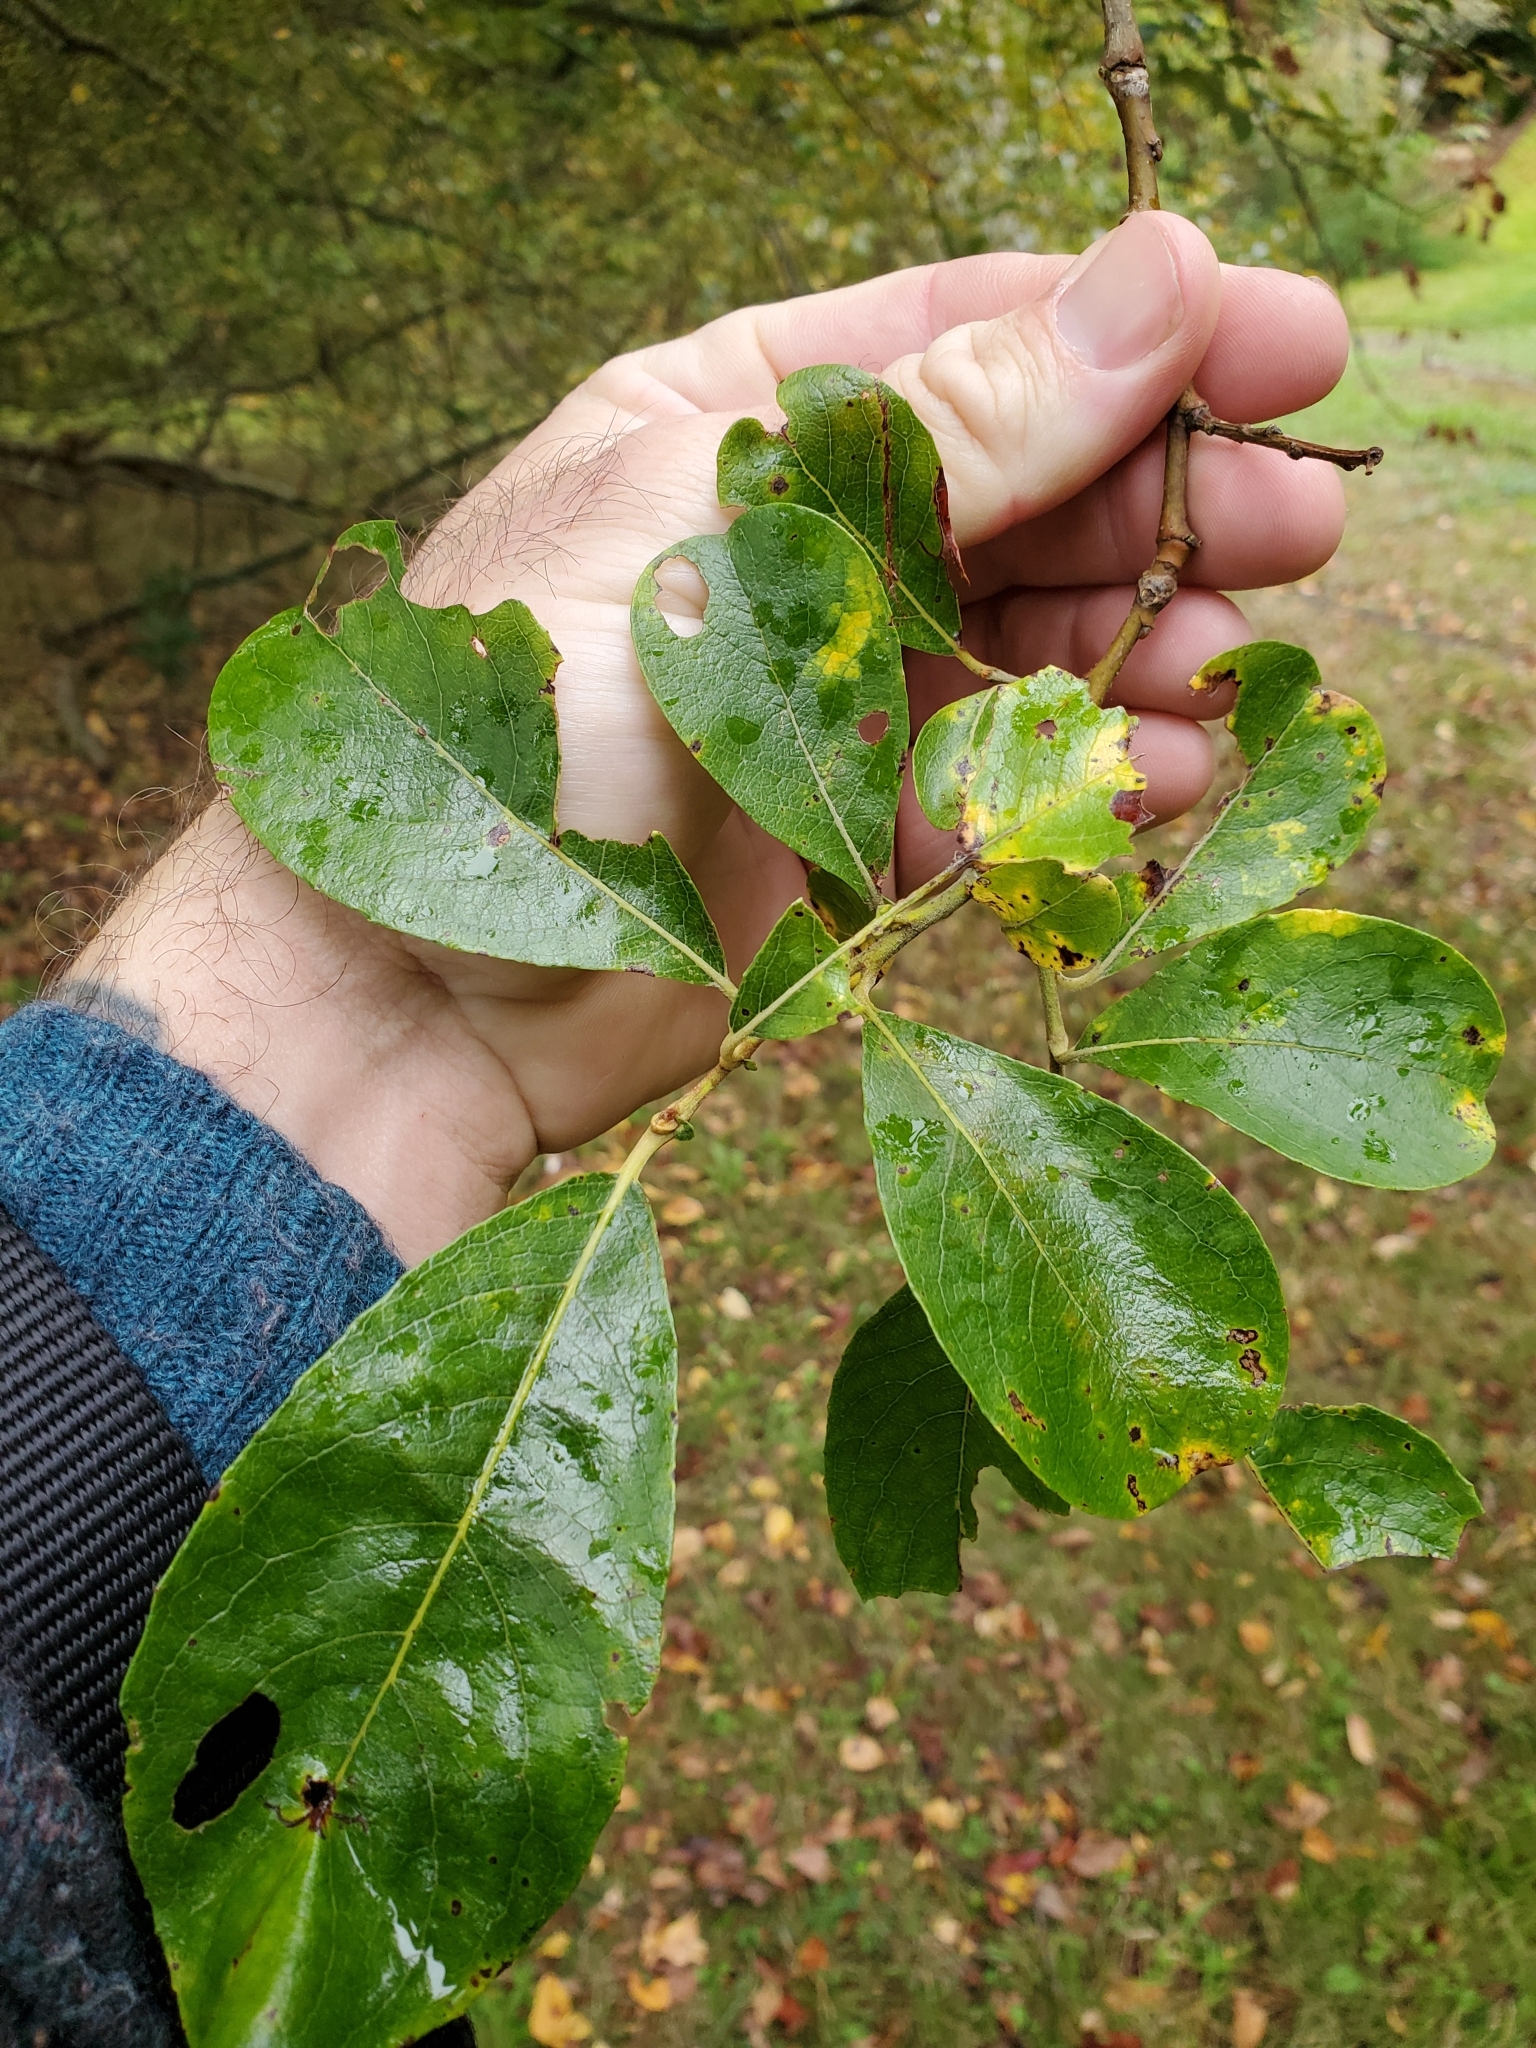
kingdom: Plantae
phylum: Tracheophyta
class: Magnoliopsida
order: Malpighiales
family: Salicaceae
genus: Salix
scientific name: Salix scouleriana
